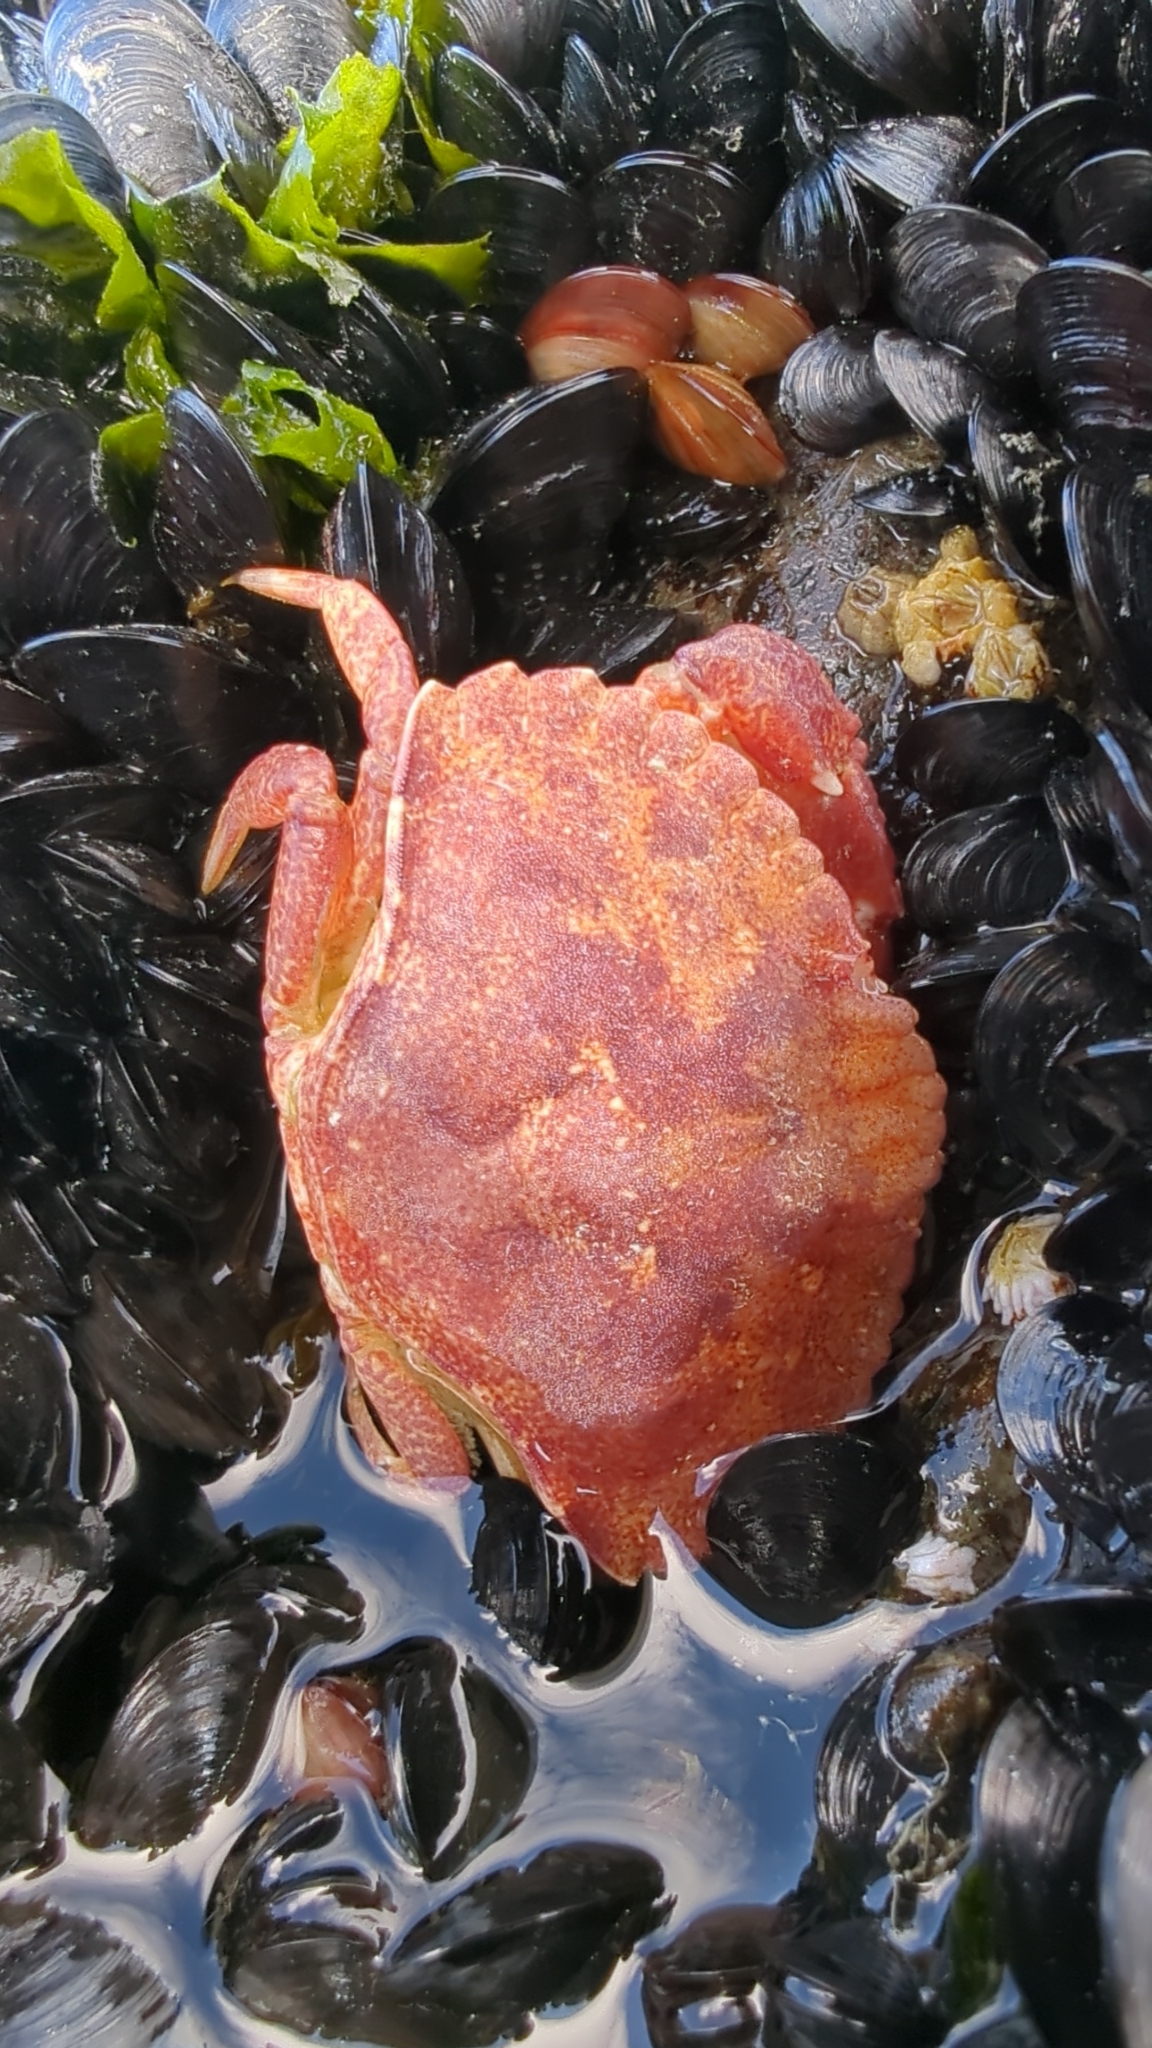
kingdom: Animalia
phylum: Arthropoda
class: Malacostraca
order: Decapoda
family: Cancridae
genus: Cancer
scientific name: Cancer productus
